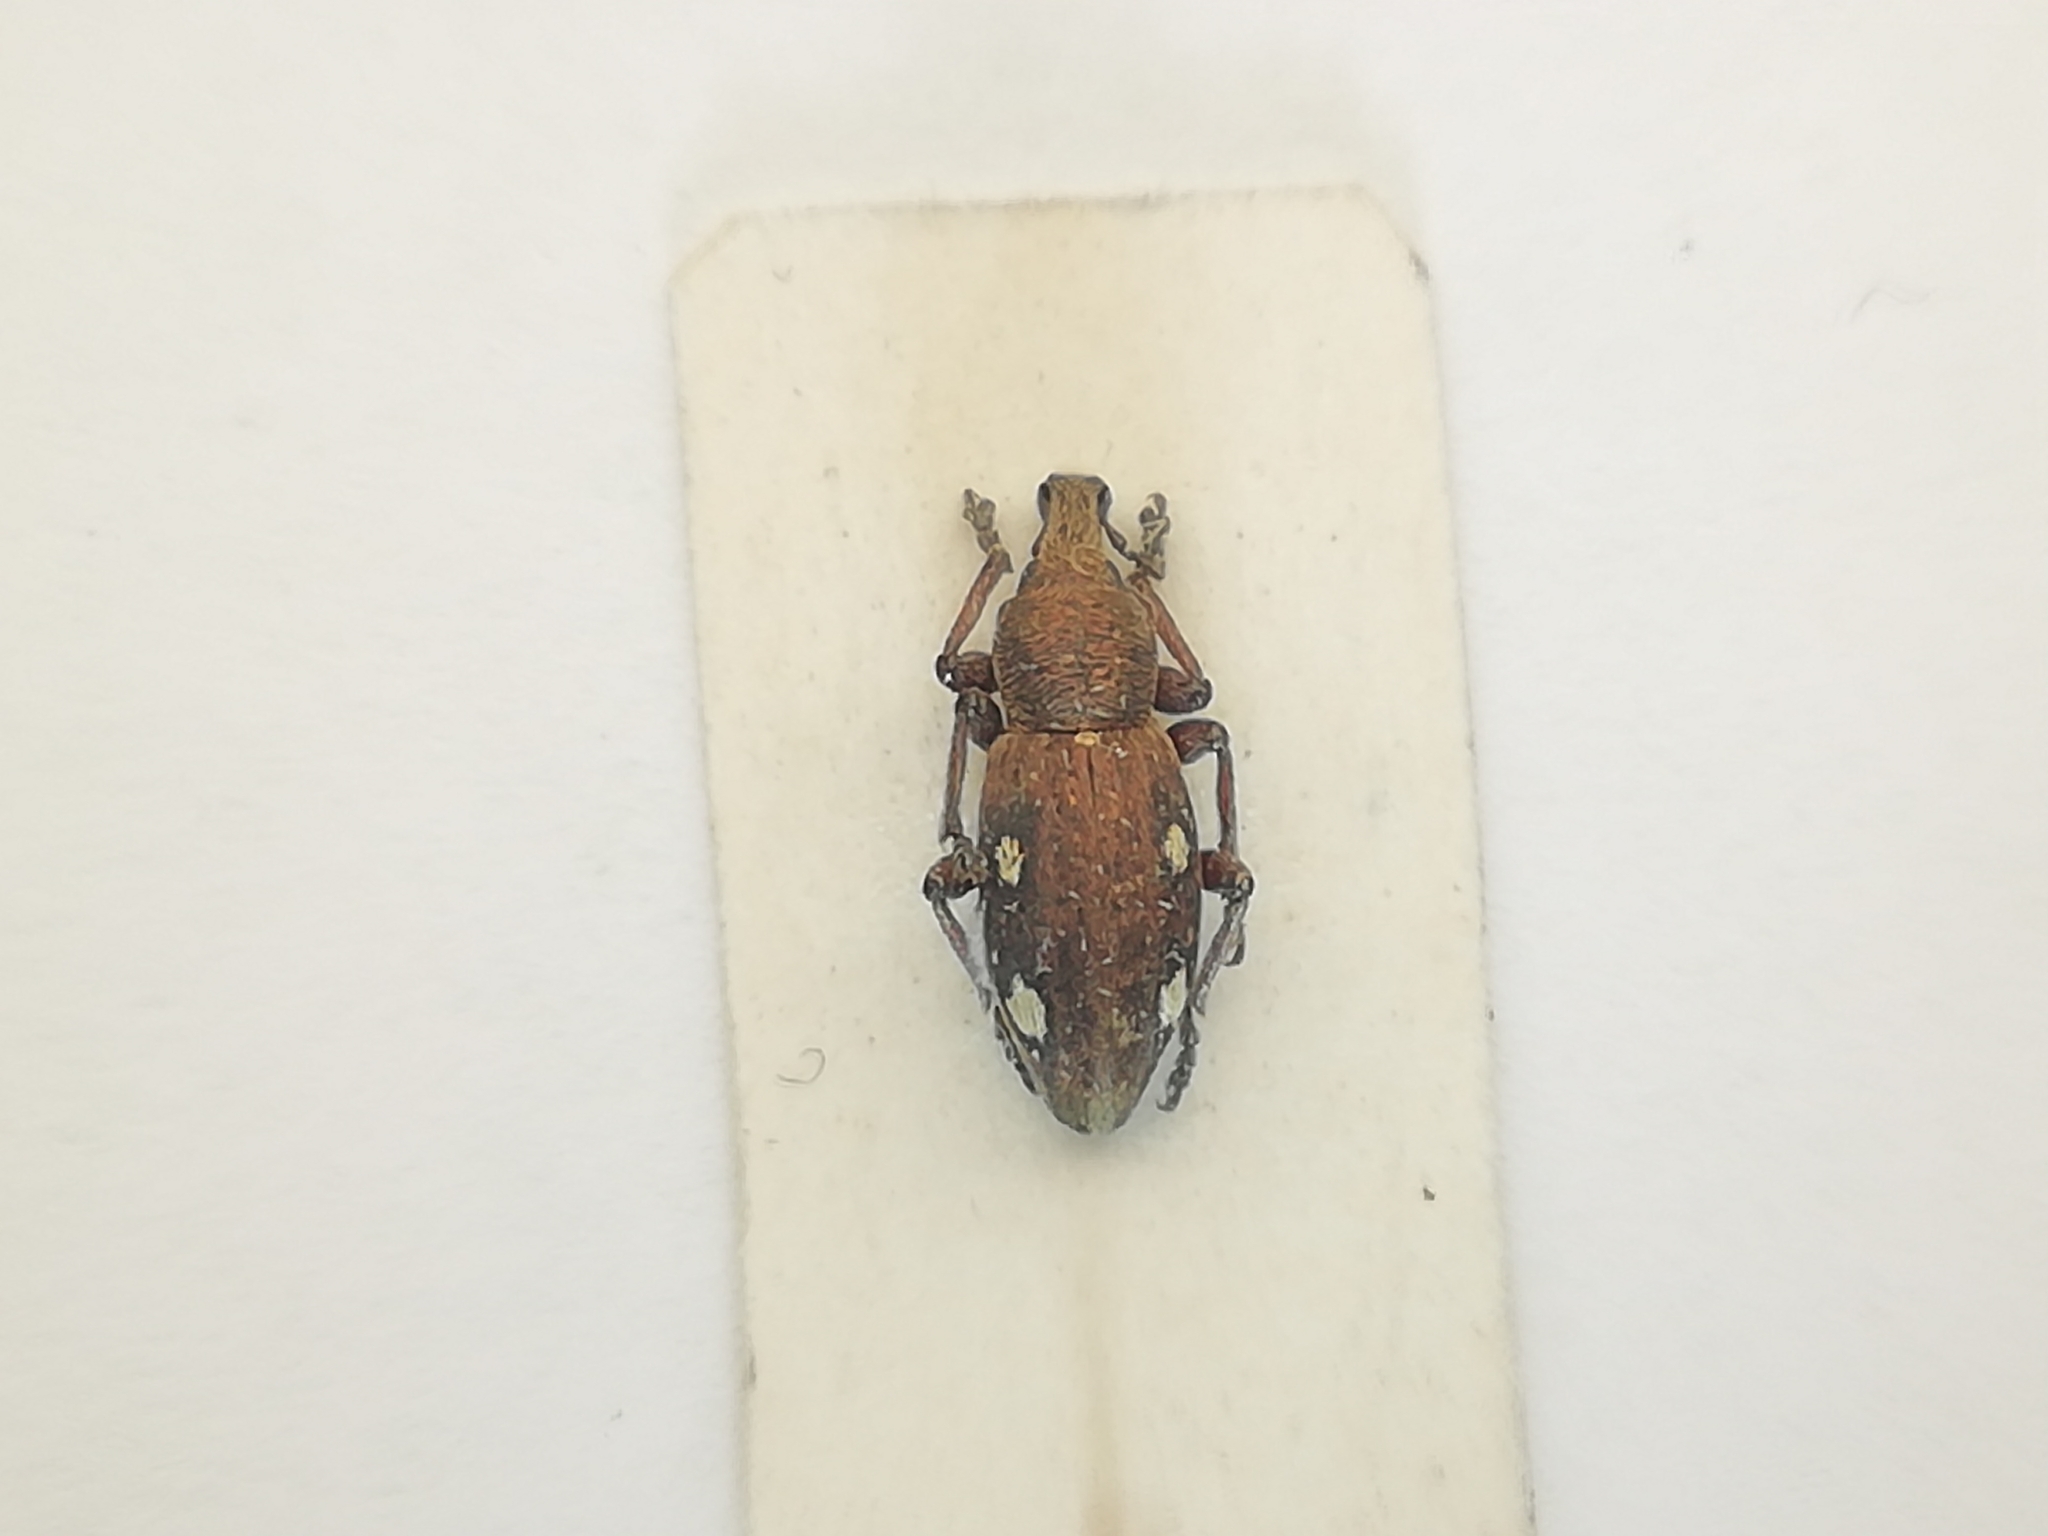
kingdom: Animalia
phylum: Arthropoda
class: Insecta
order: Coleoptera
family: Curculionidae
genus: Trichalophus
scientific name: Trichalophus quadriguttatus
